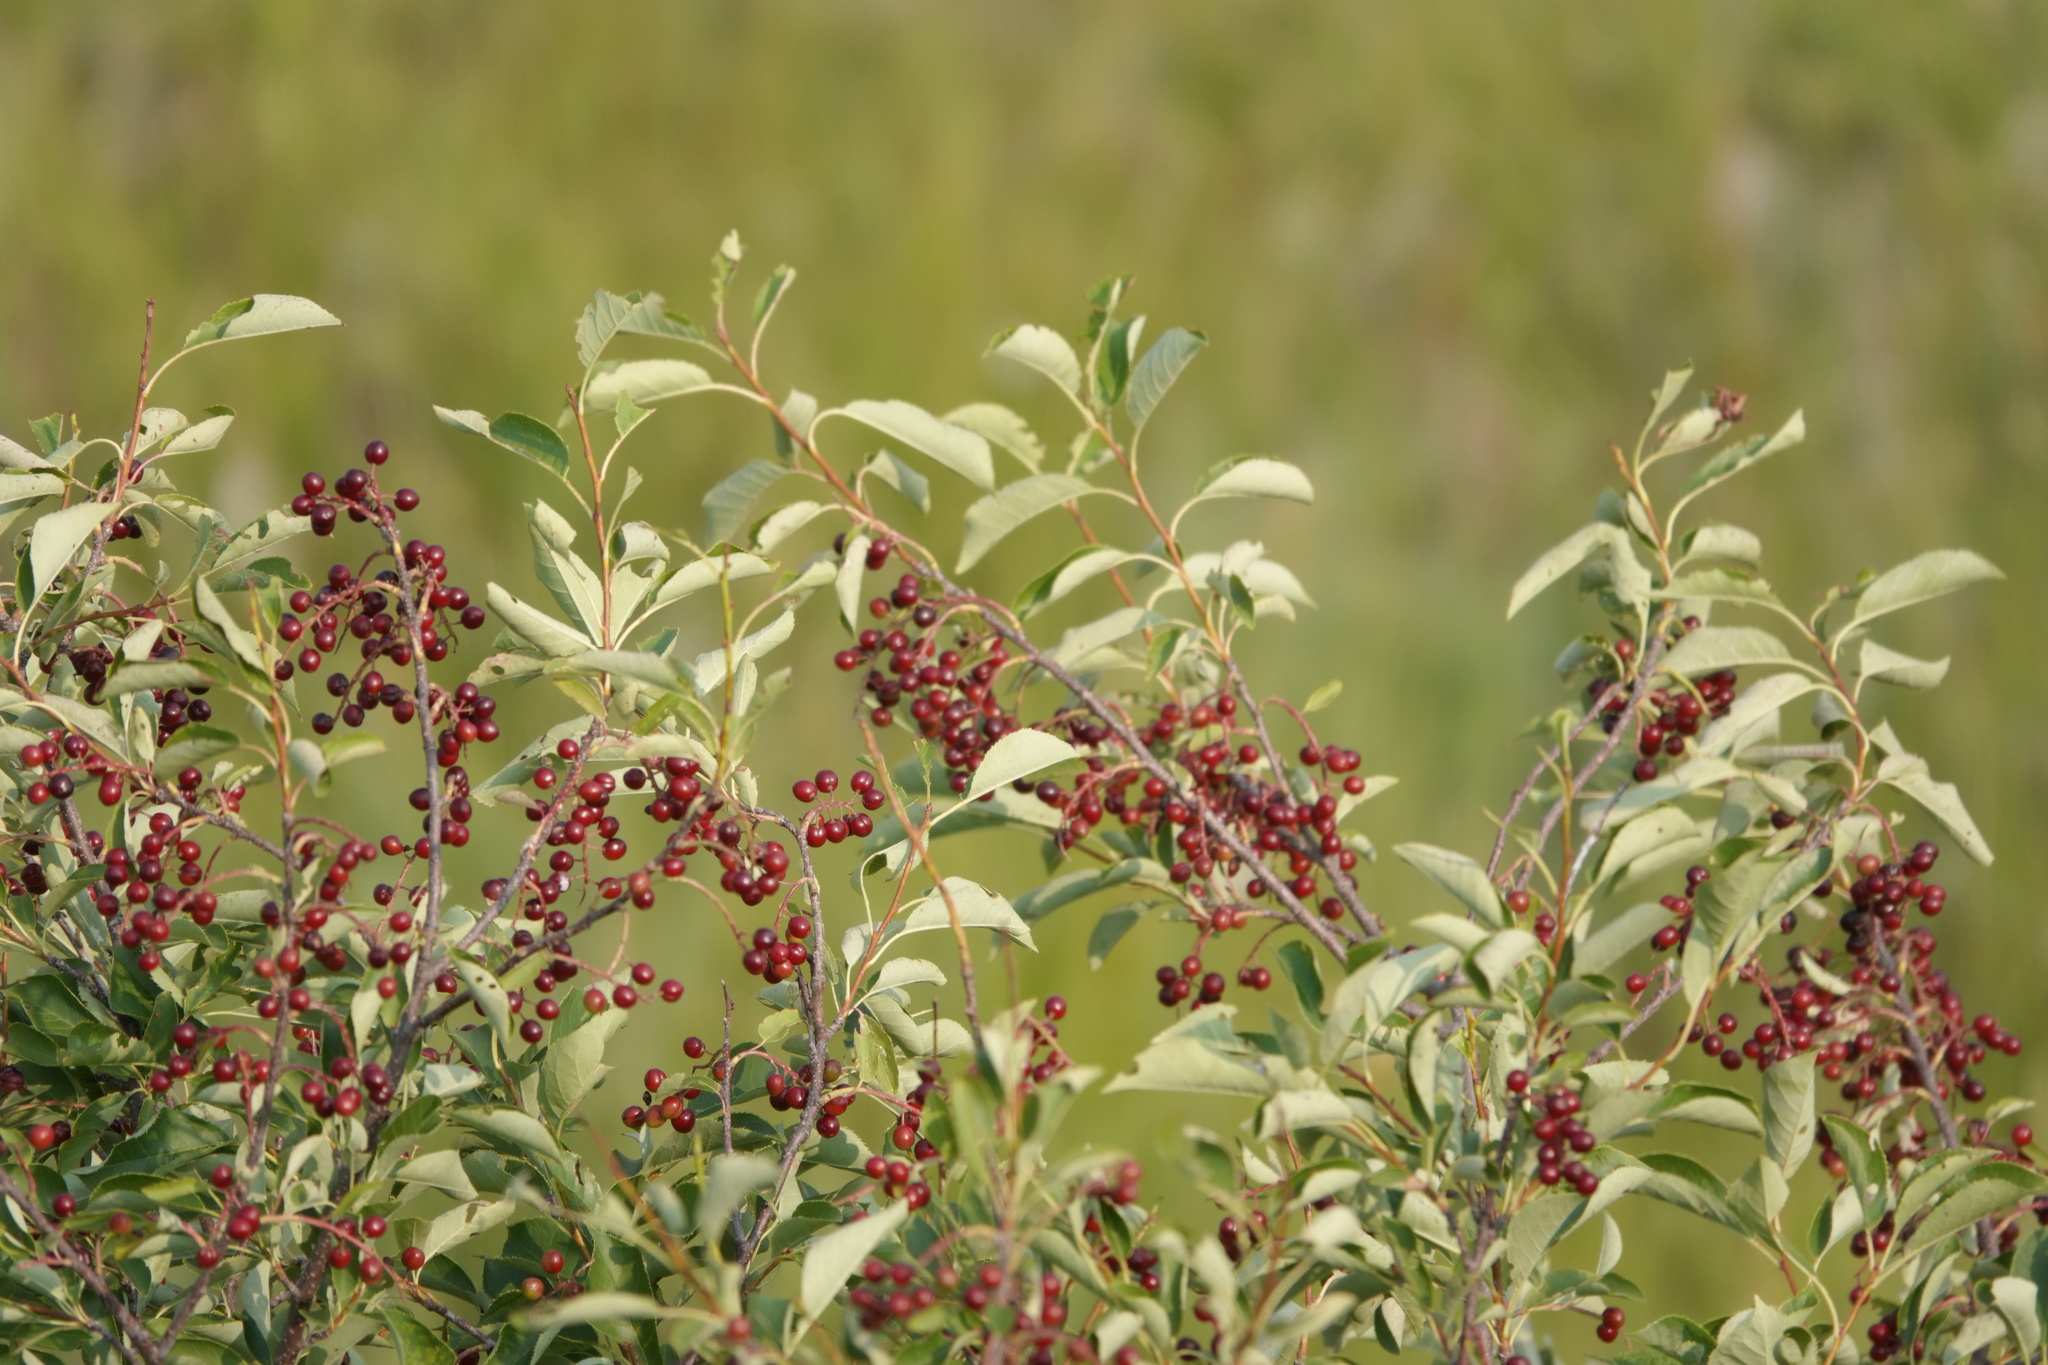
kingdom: Plantae
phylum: Tracheophyta
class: Magnoliopsida
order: Rosales
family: Rosaceae
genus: Prunus
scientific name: Prunus virginiana
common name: Chokecherry
